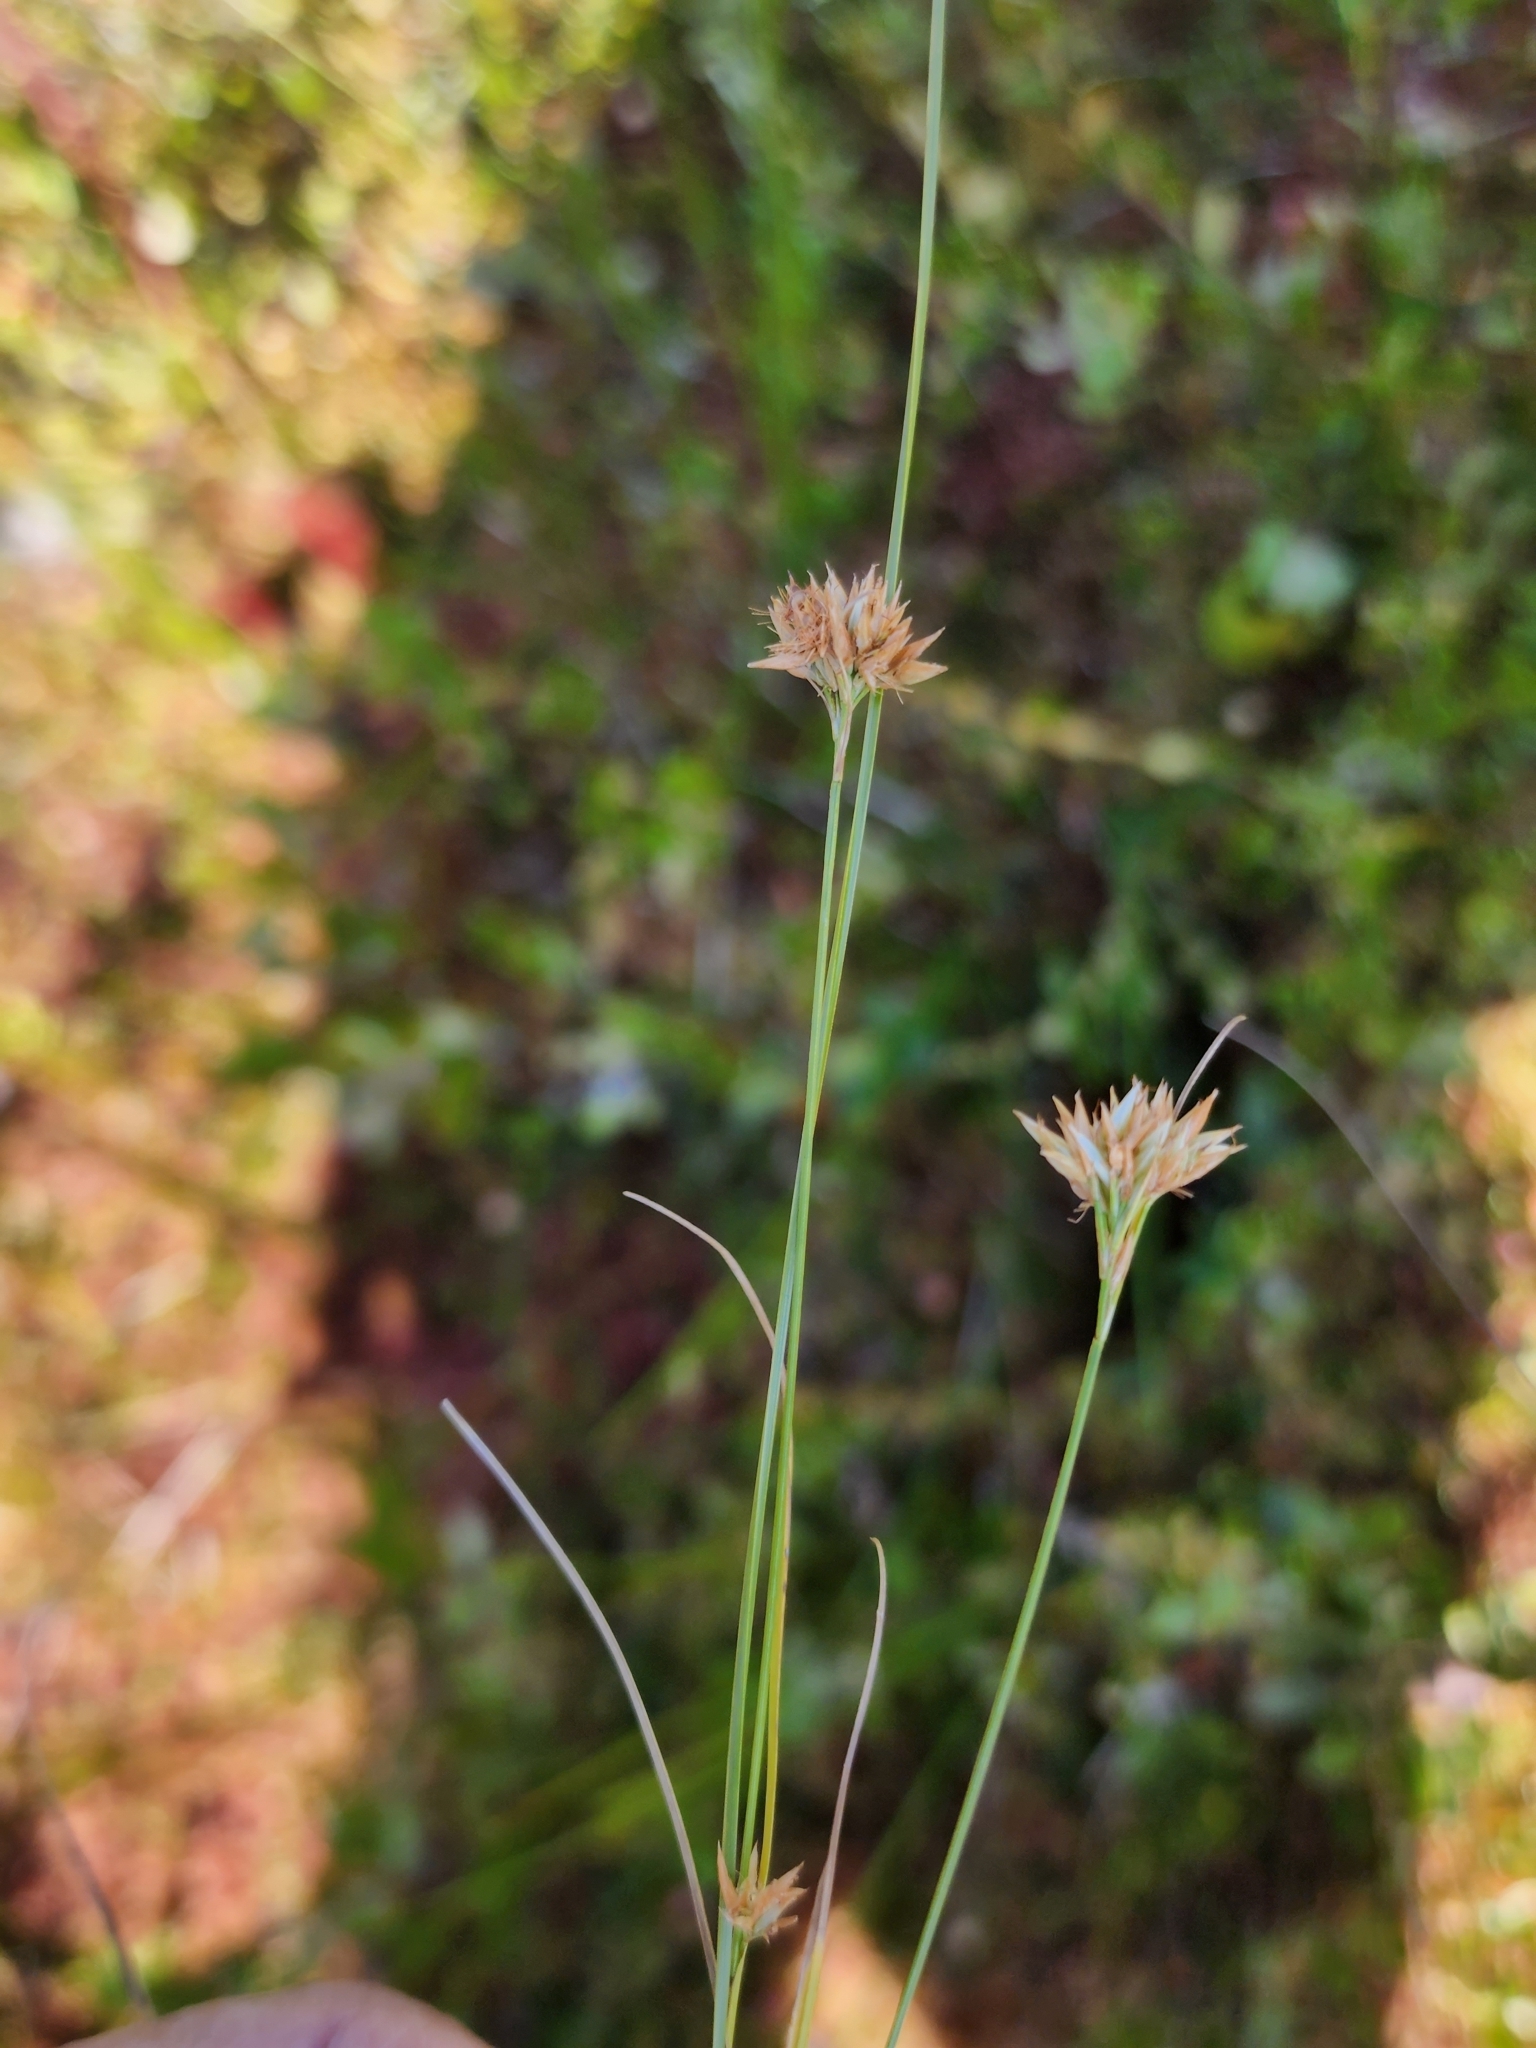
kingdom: Plantae
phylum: Tracheophyta
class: Liliopsida
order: Poales
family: Cyperaceae
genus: Rhynchospora
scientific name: Rhynchospora alba
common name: White beak-sedge
